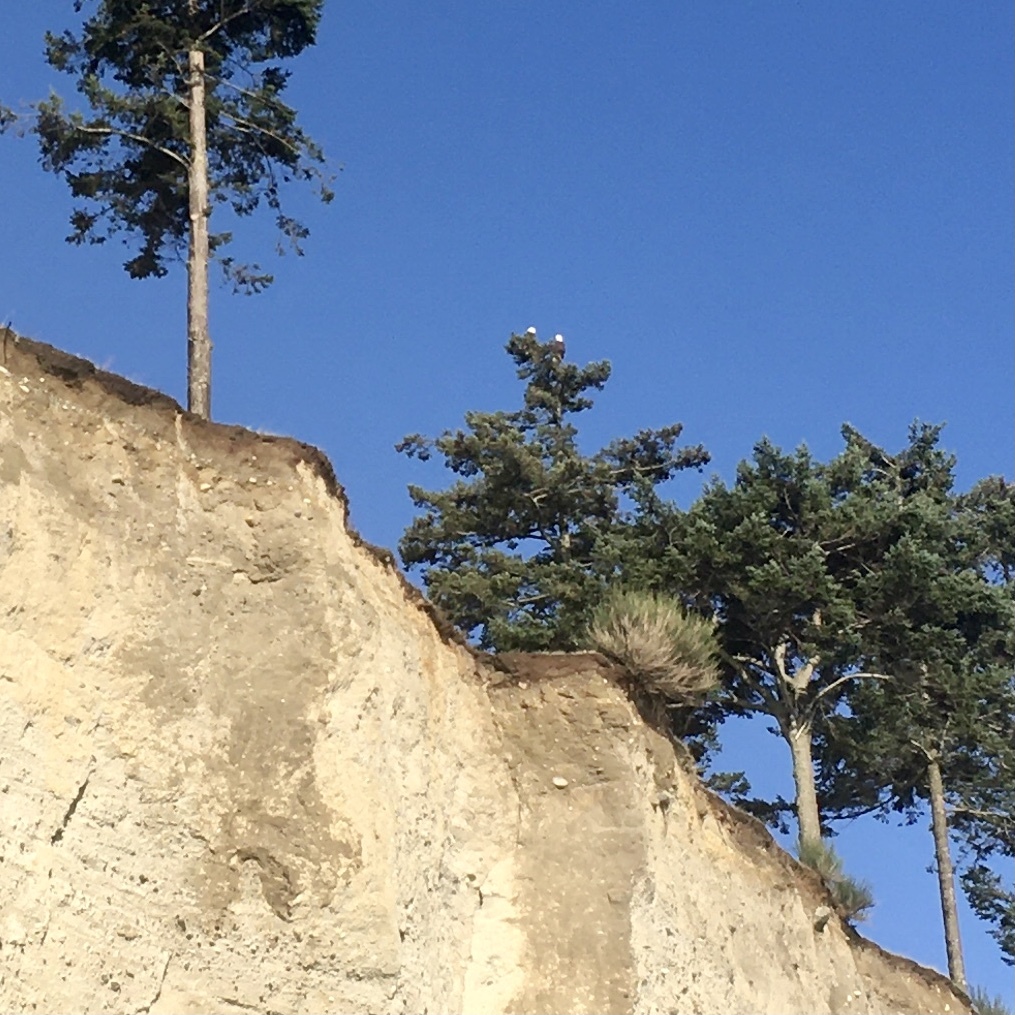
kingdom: Animalia
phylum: Chordata
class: Aves
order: Accipitriformes
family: Accipitridae
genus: Haliaeetus
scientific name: Haliaeetus leucocephalus
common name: Bald eagle
